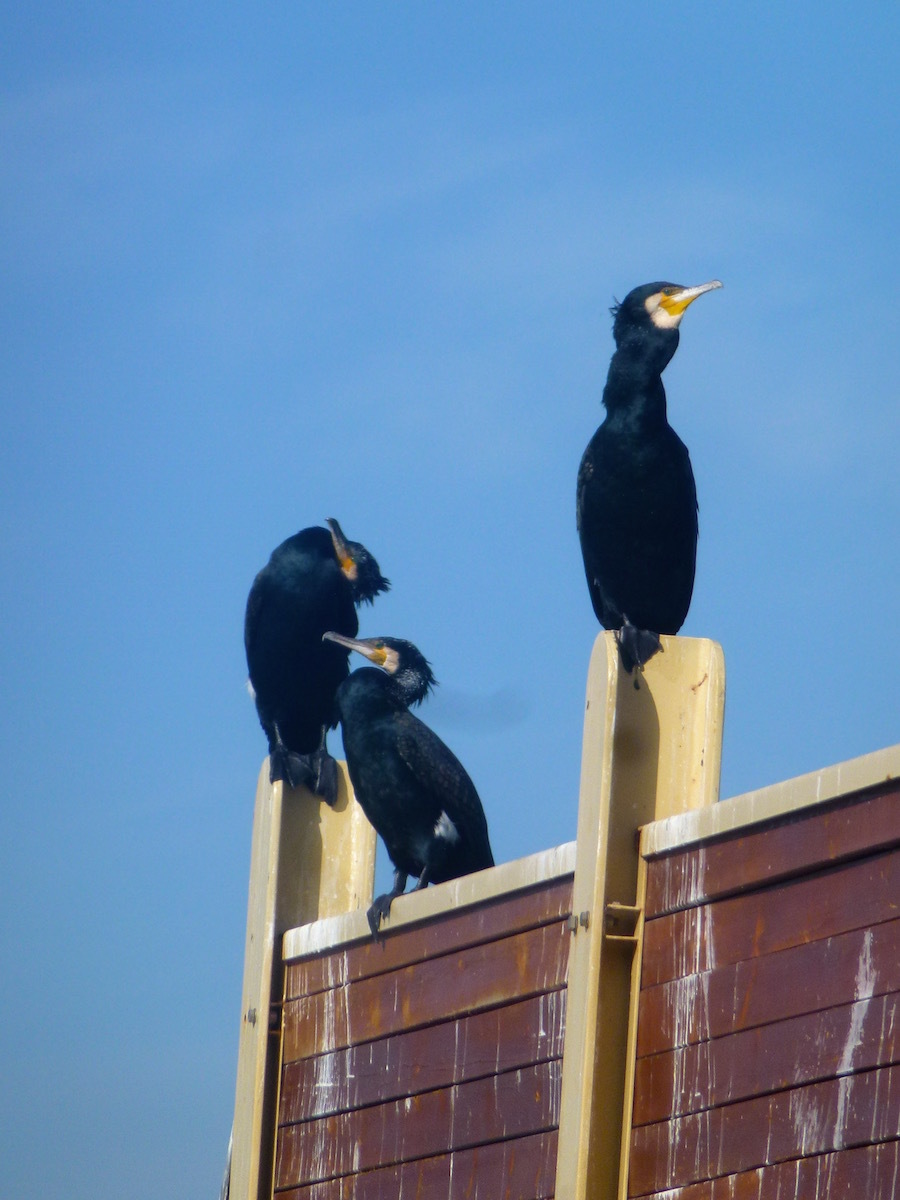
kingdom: Animalia
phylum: Chordata
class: Aves
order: Suliformes
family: Phalacrocoracidae
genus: Phalacrocorax
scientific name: Phalacrocorax carbo
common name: Great cormorant
